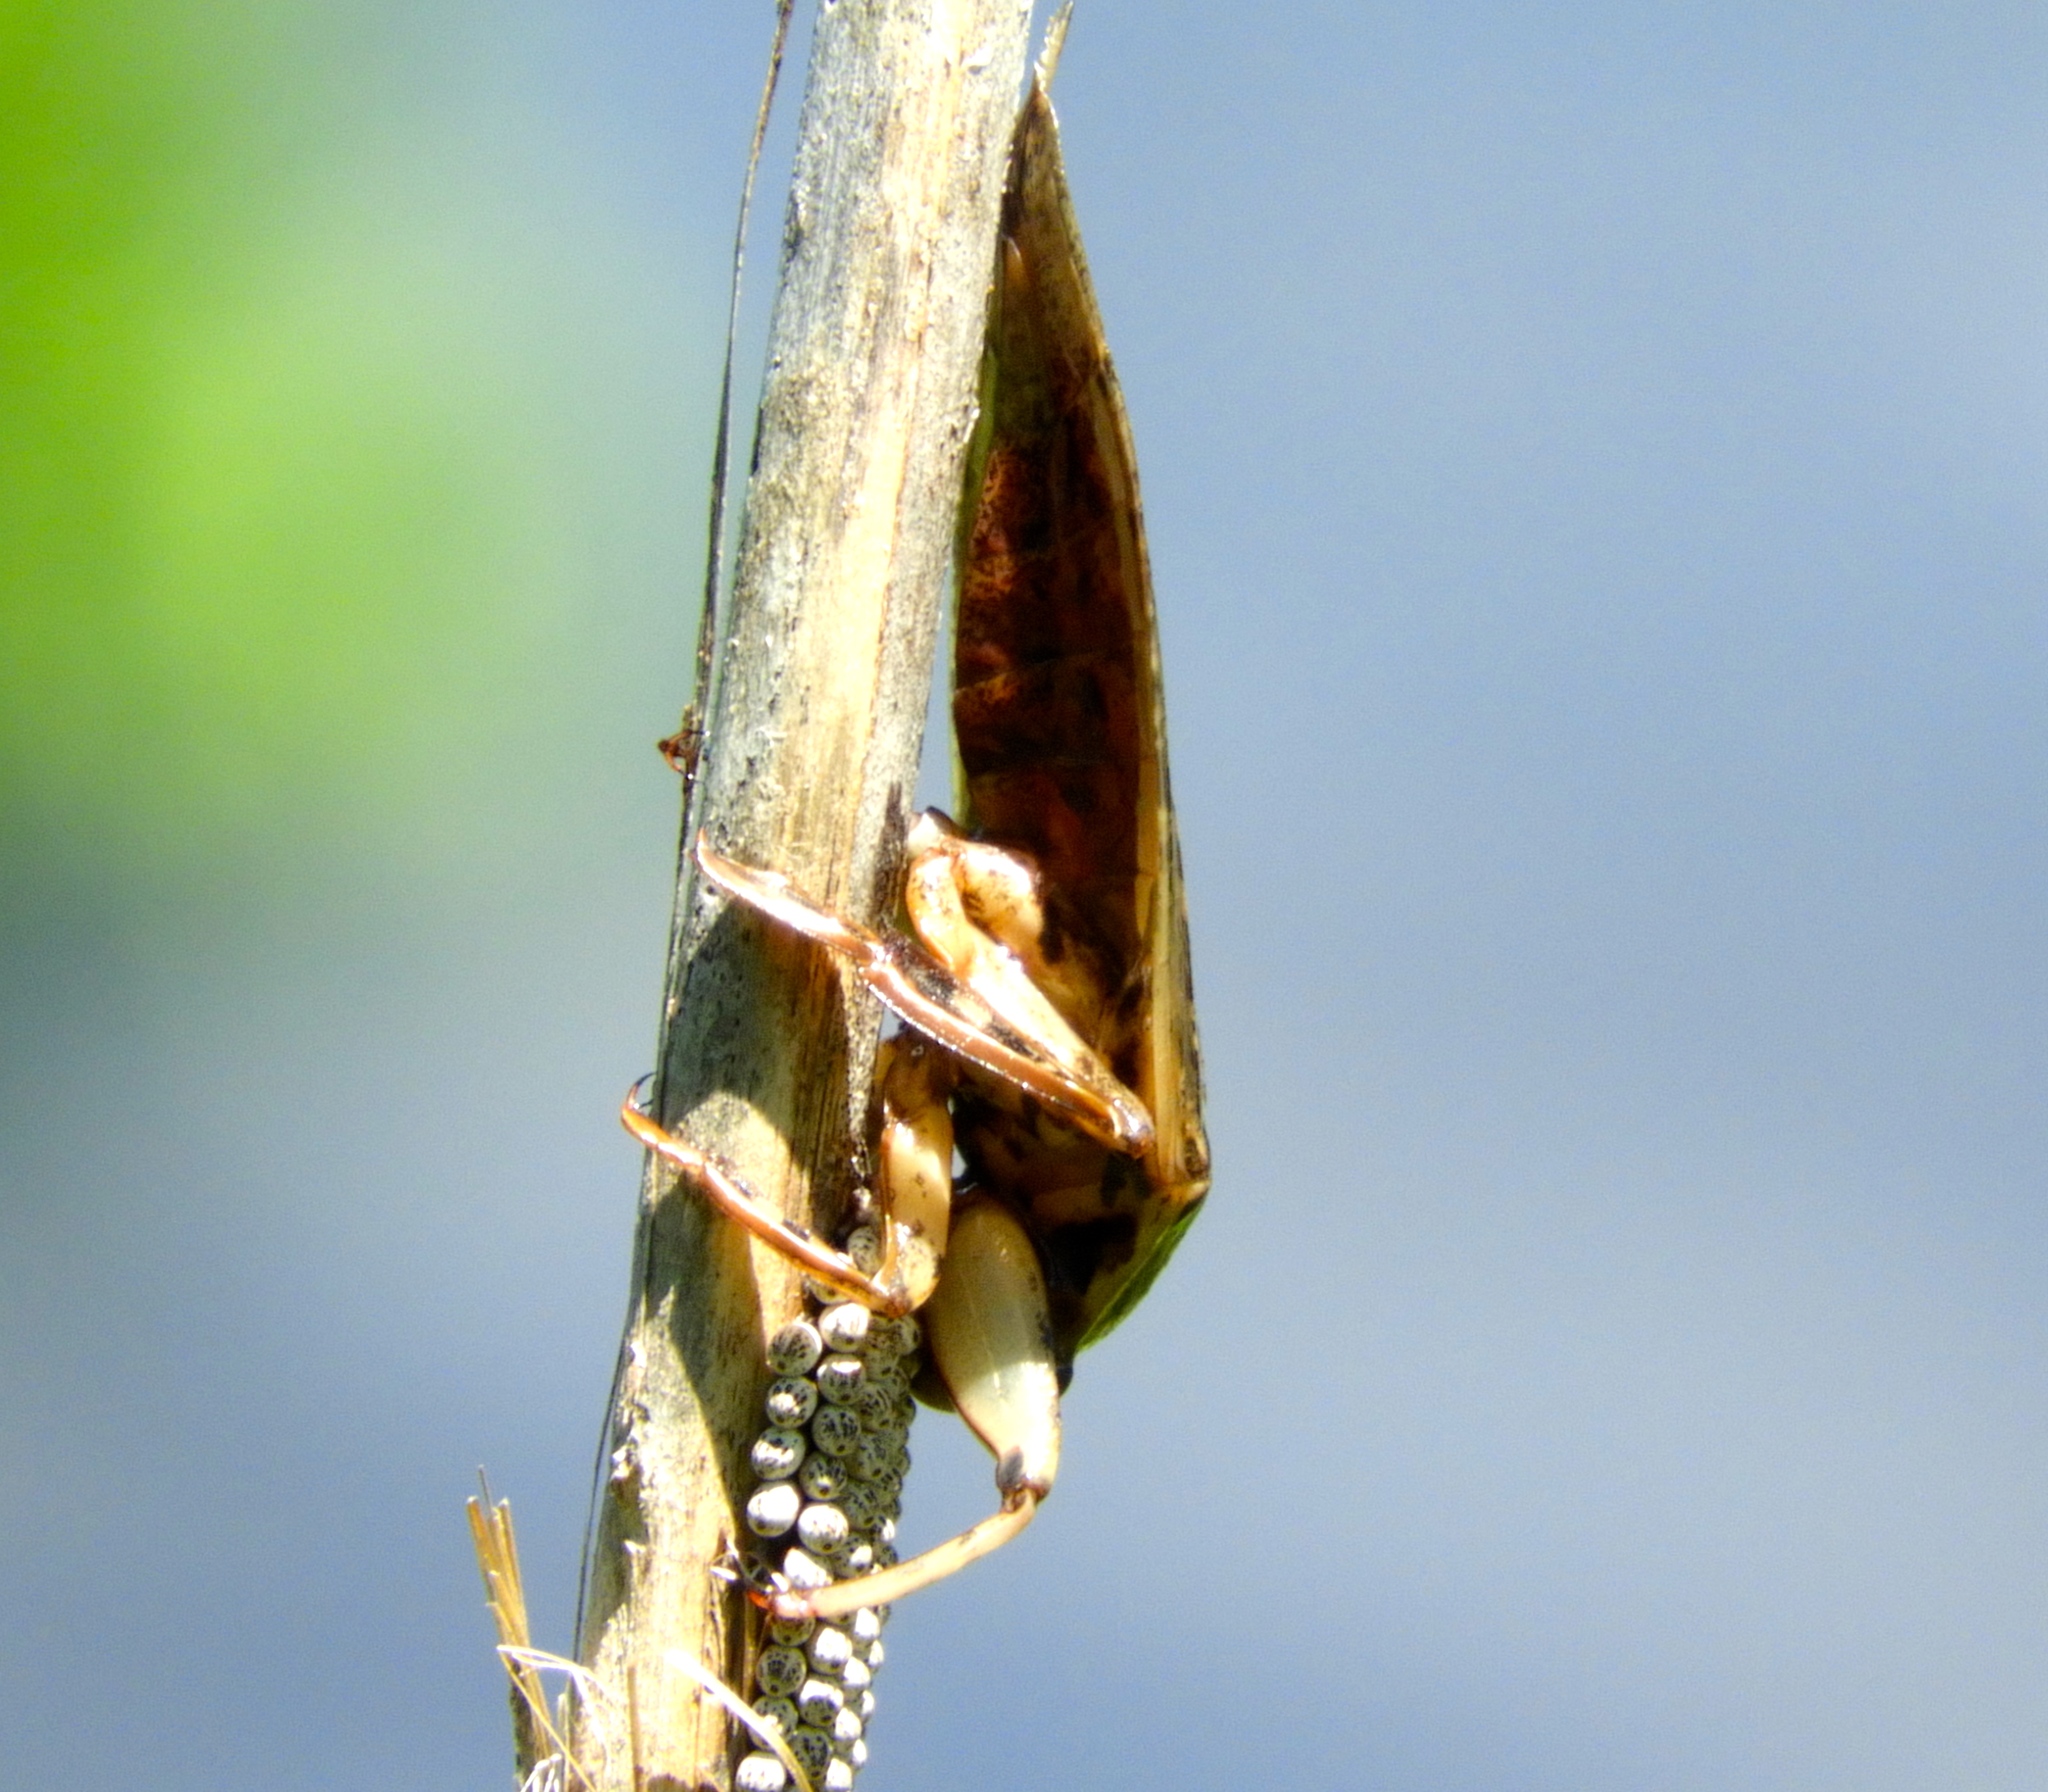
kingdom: Animalia
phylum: Arthropoda
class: Insecta
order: Hemiptera
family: Belostomatidae
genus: Lethocerus
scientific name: Lethocerus
